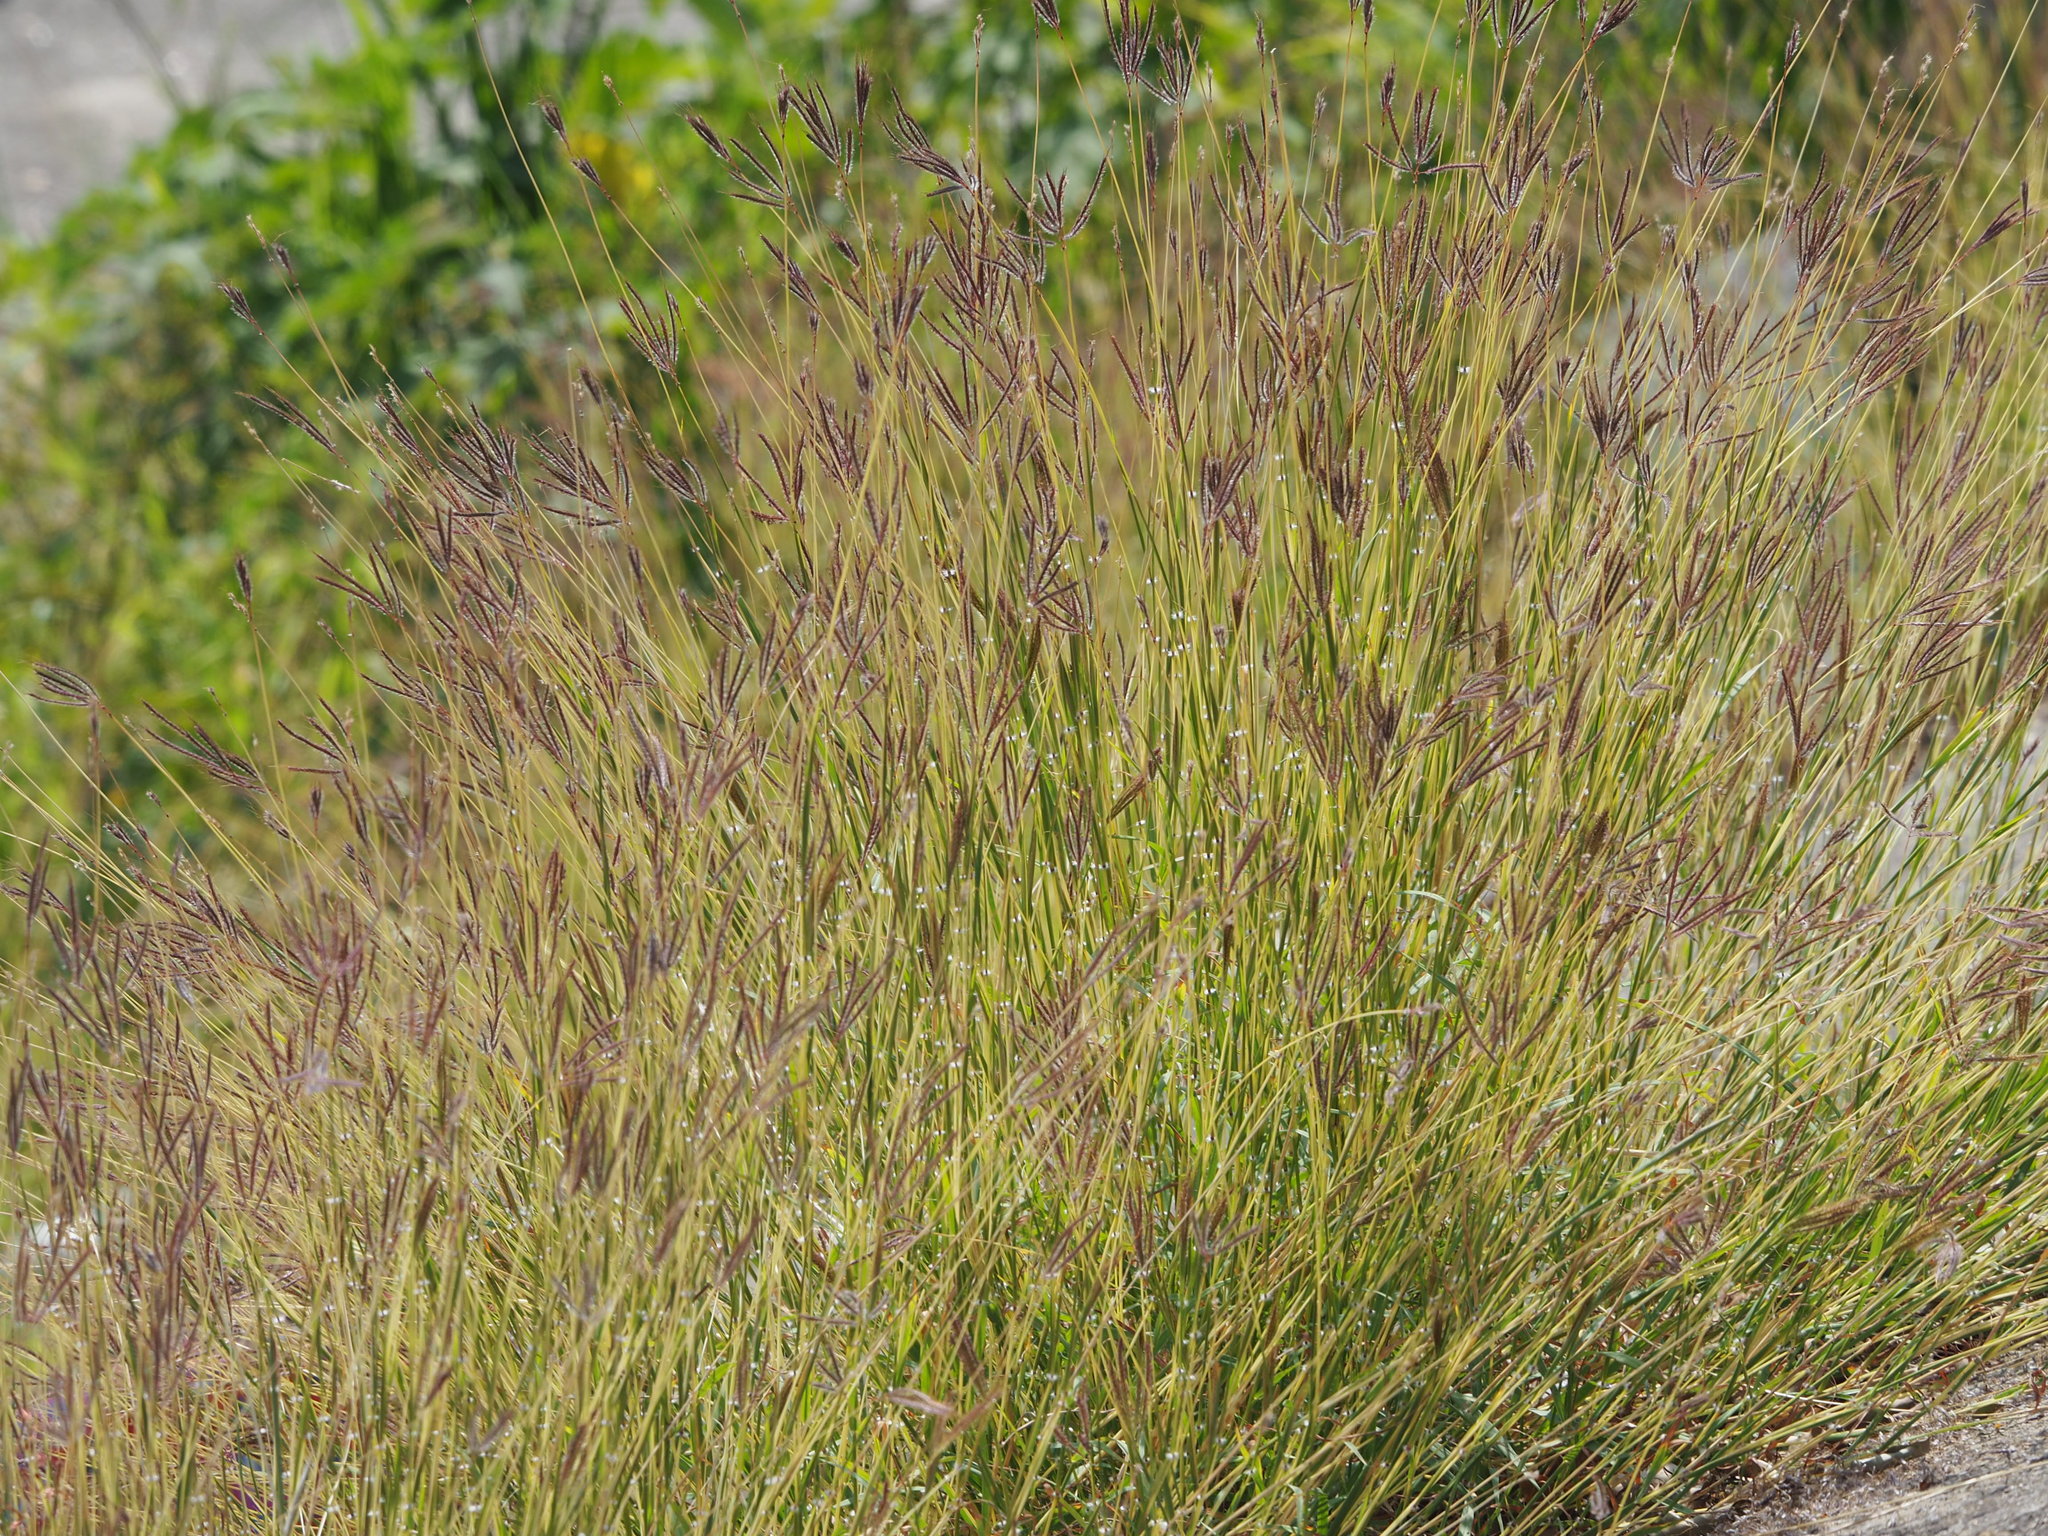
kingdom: Plantae
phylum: Tracheophyta
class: Liliopsida
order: Poales
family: Poaceae
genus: Dichanthium
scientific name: Dichanthium annulatum
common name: Kleberg's bluestem
